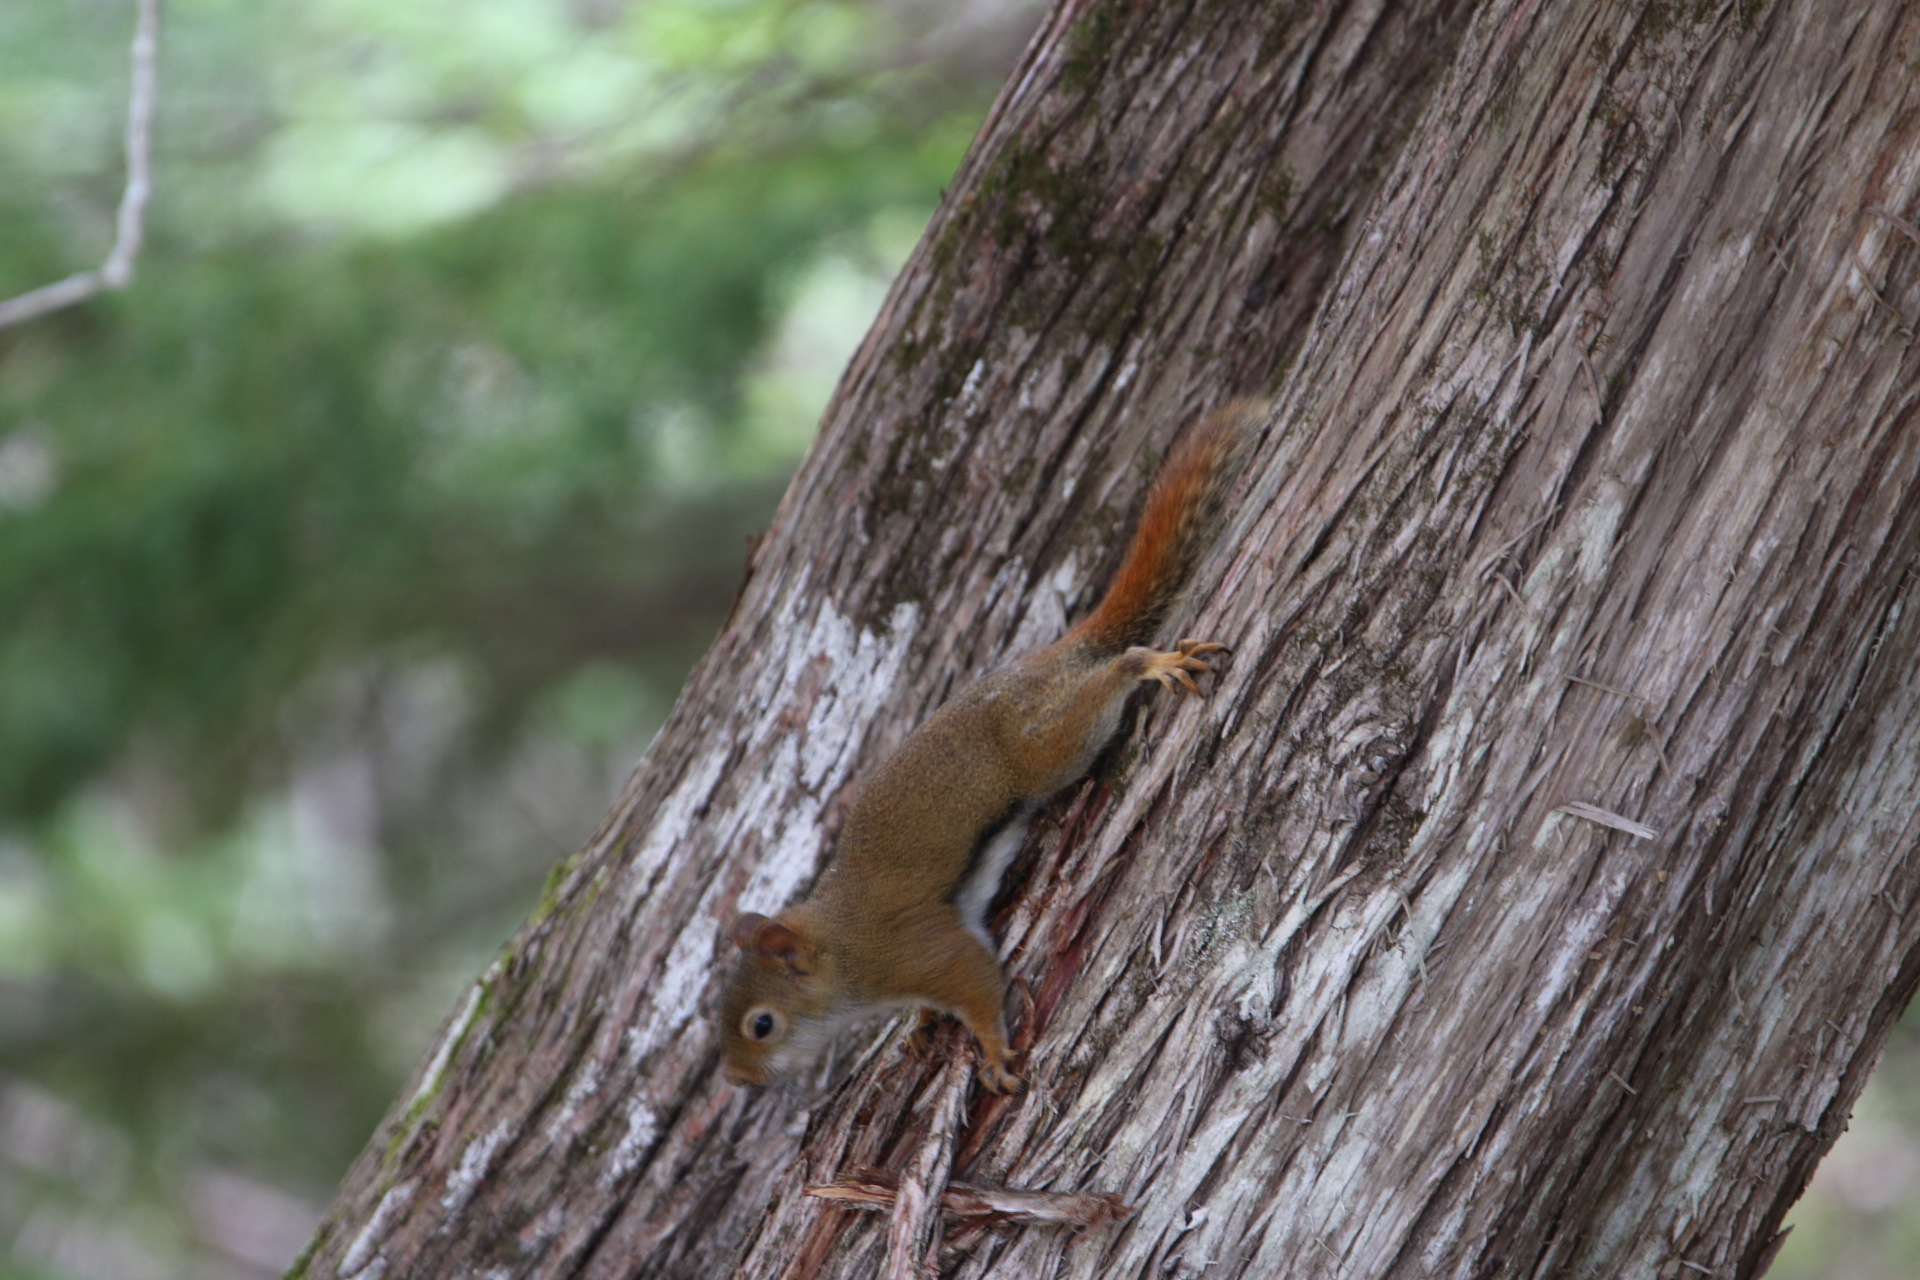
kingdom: Animalia
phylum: Chordata
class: Mammalia
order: Rodentia
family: Sciuridae
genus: Tamiasciurus
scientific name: Tamiasciurus hudsonicus
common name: Red squirrel
